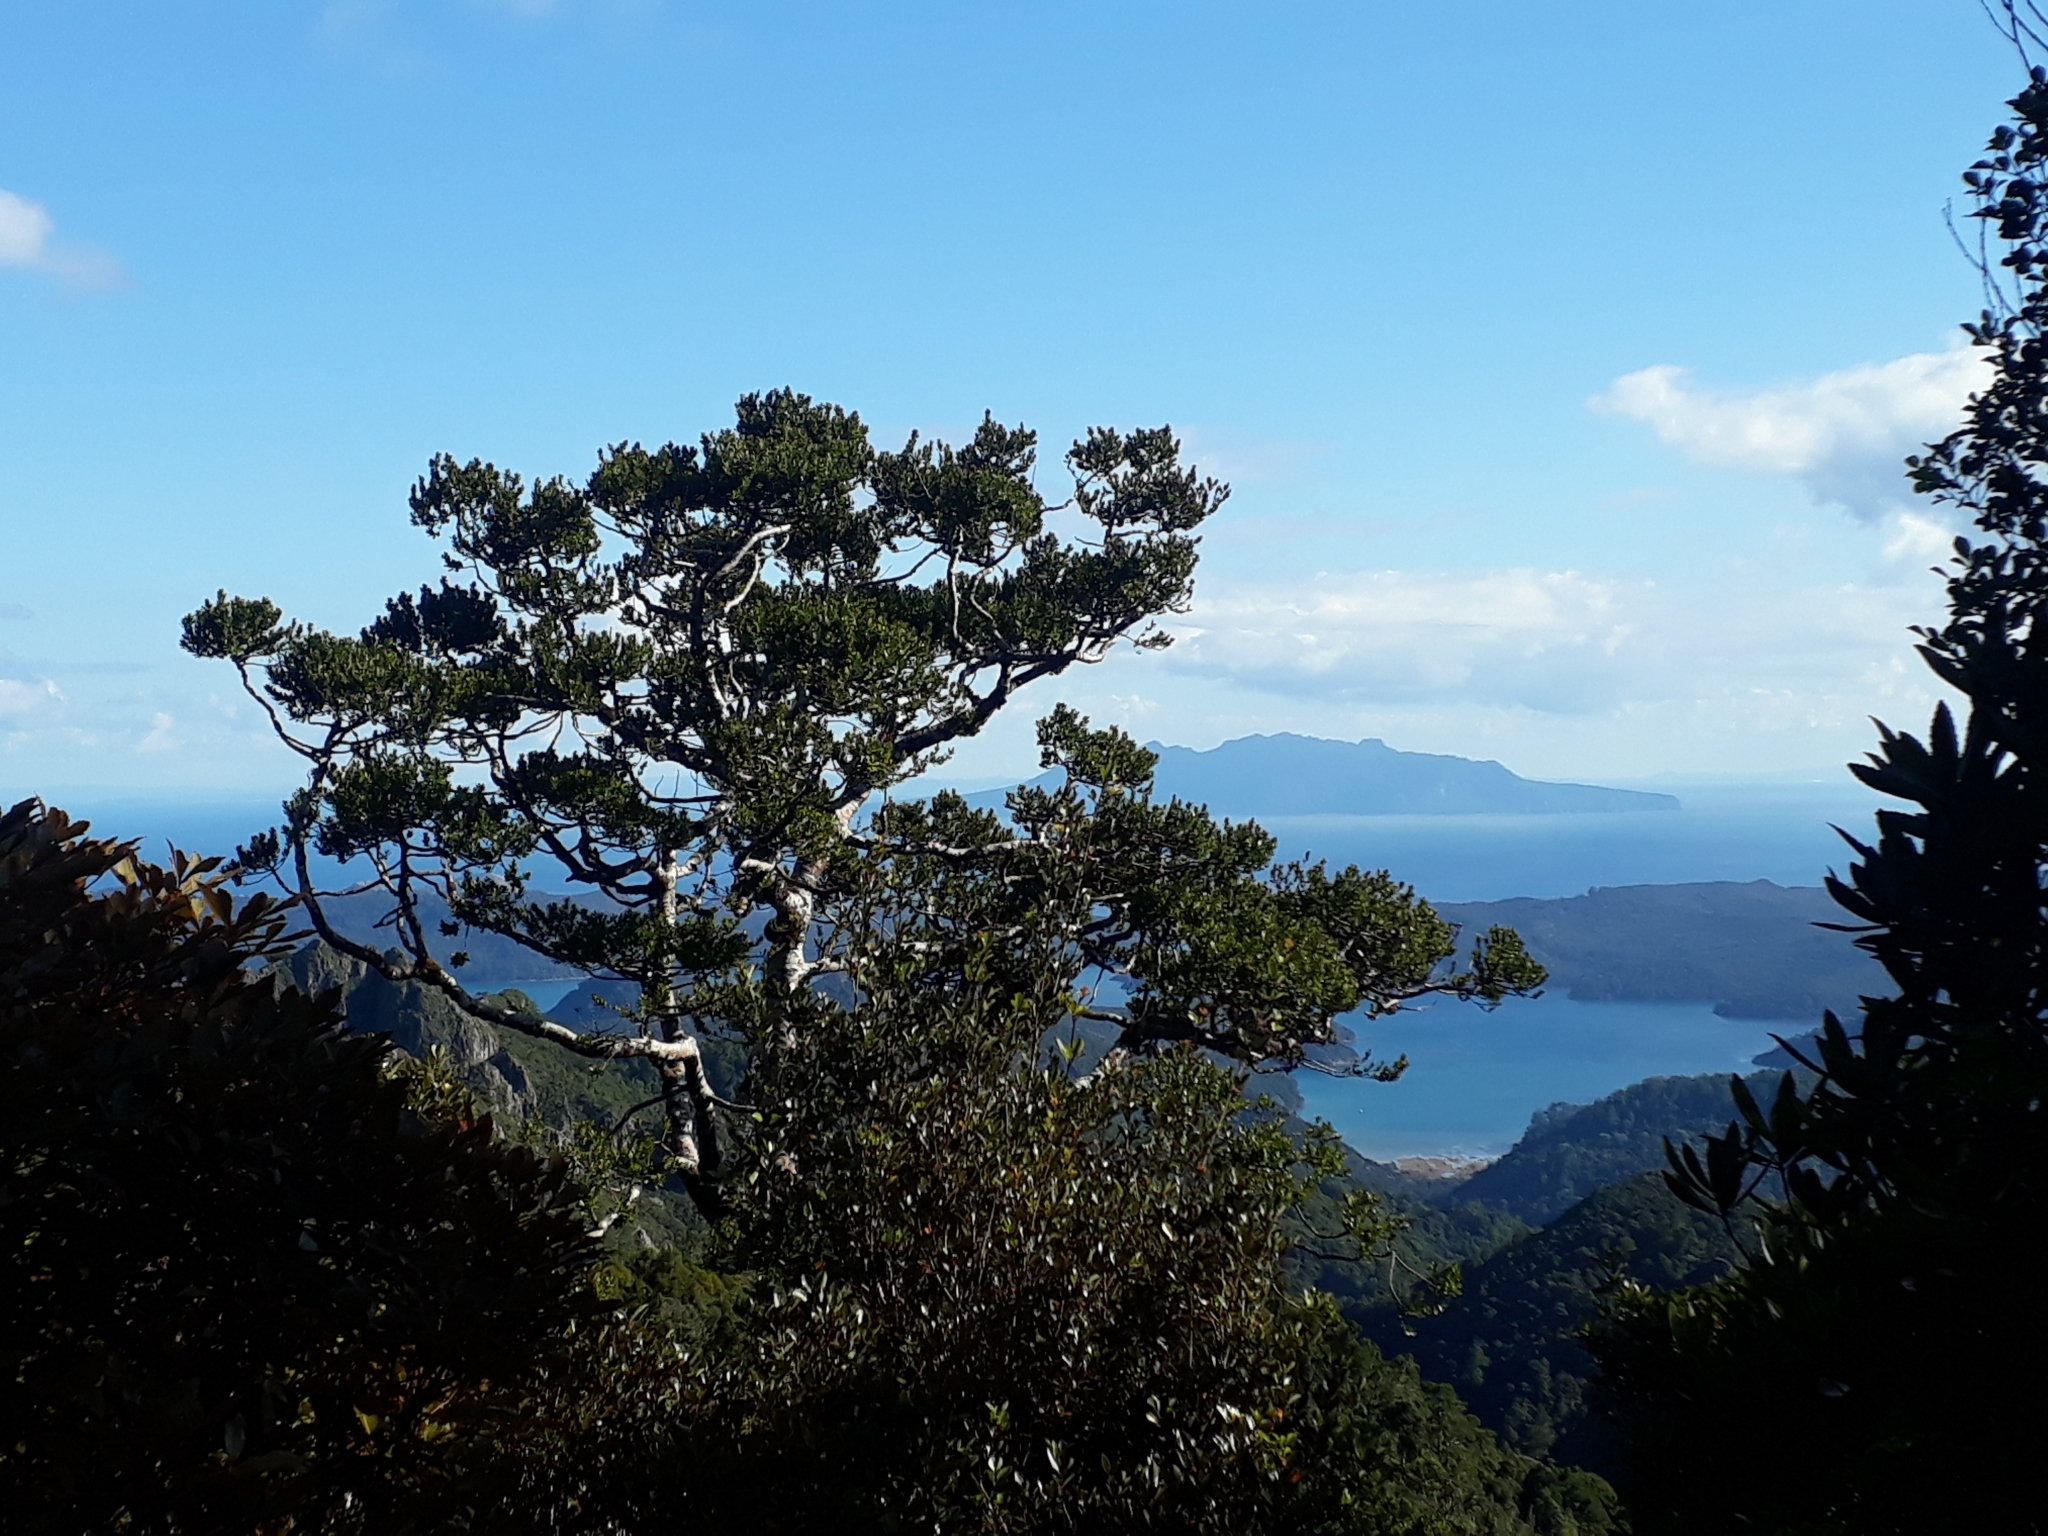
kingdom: Plantae
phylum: Tracheophyta
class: Pinopsida
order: Pinales
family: Araucariaceae
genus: Agathis
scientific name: Agathis australis
